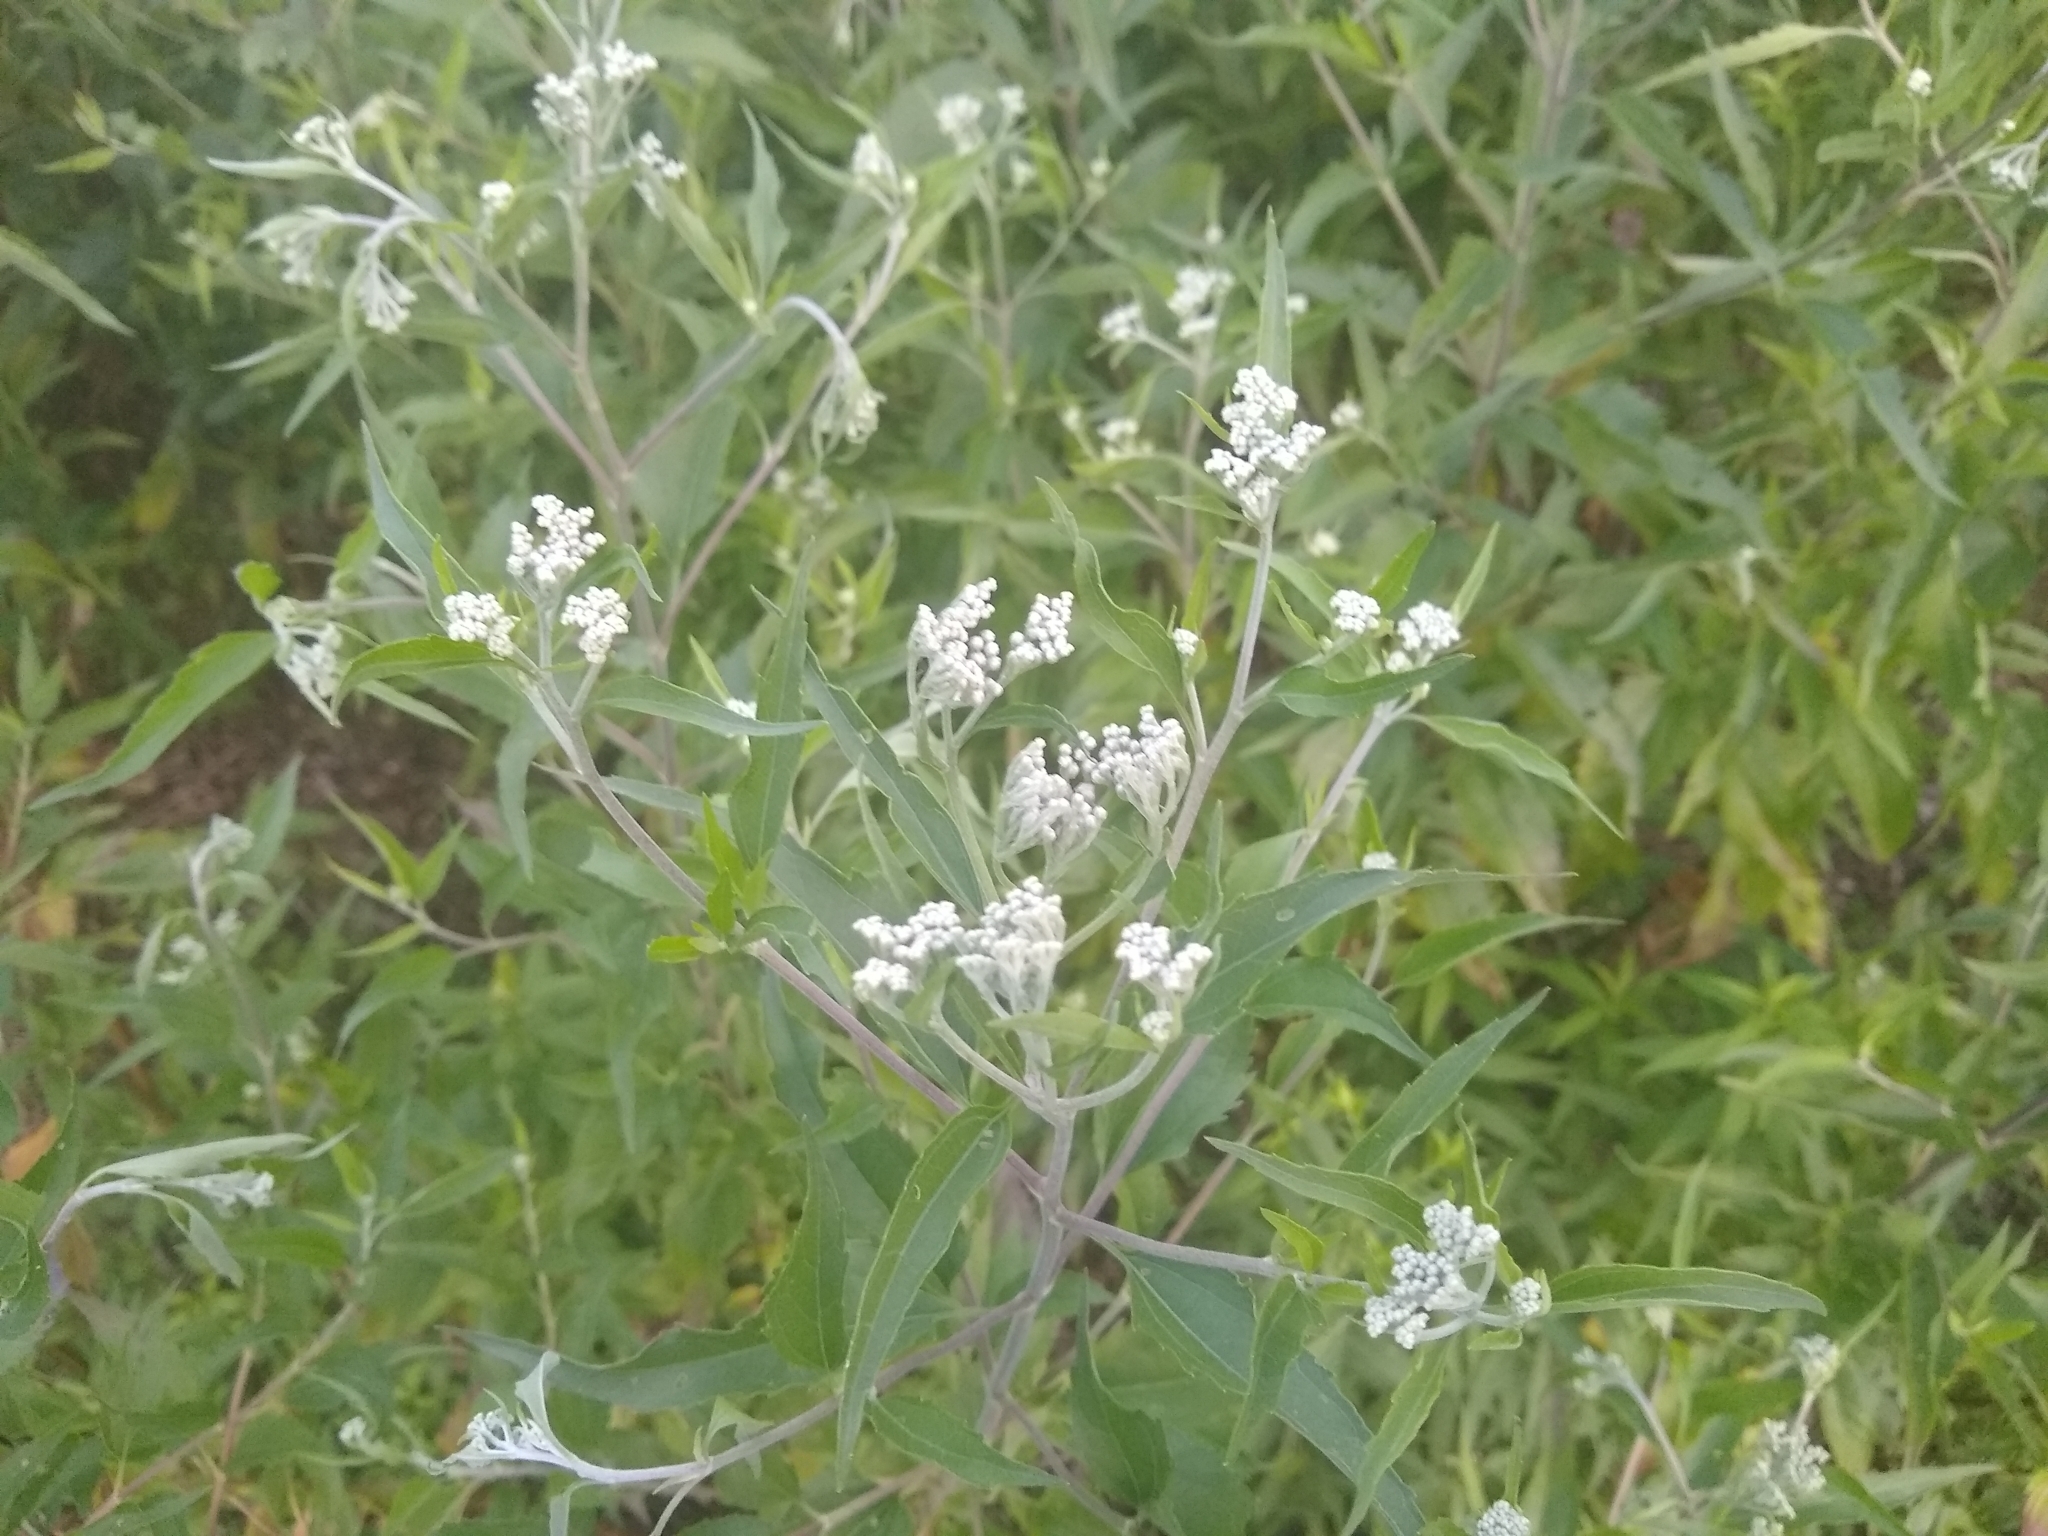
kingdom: Plantae
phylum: Tracheophyta
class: Magnoliopsida
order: Asterales
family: Asteraceae
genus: Eupatorium
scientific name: Eupatorium serotinum
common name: Late boneset
